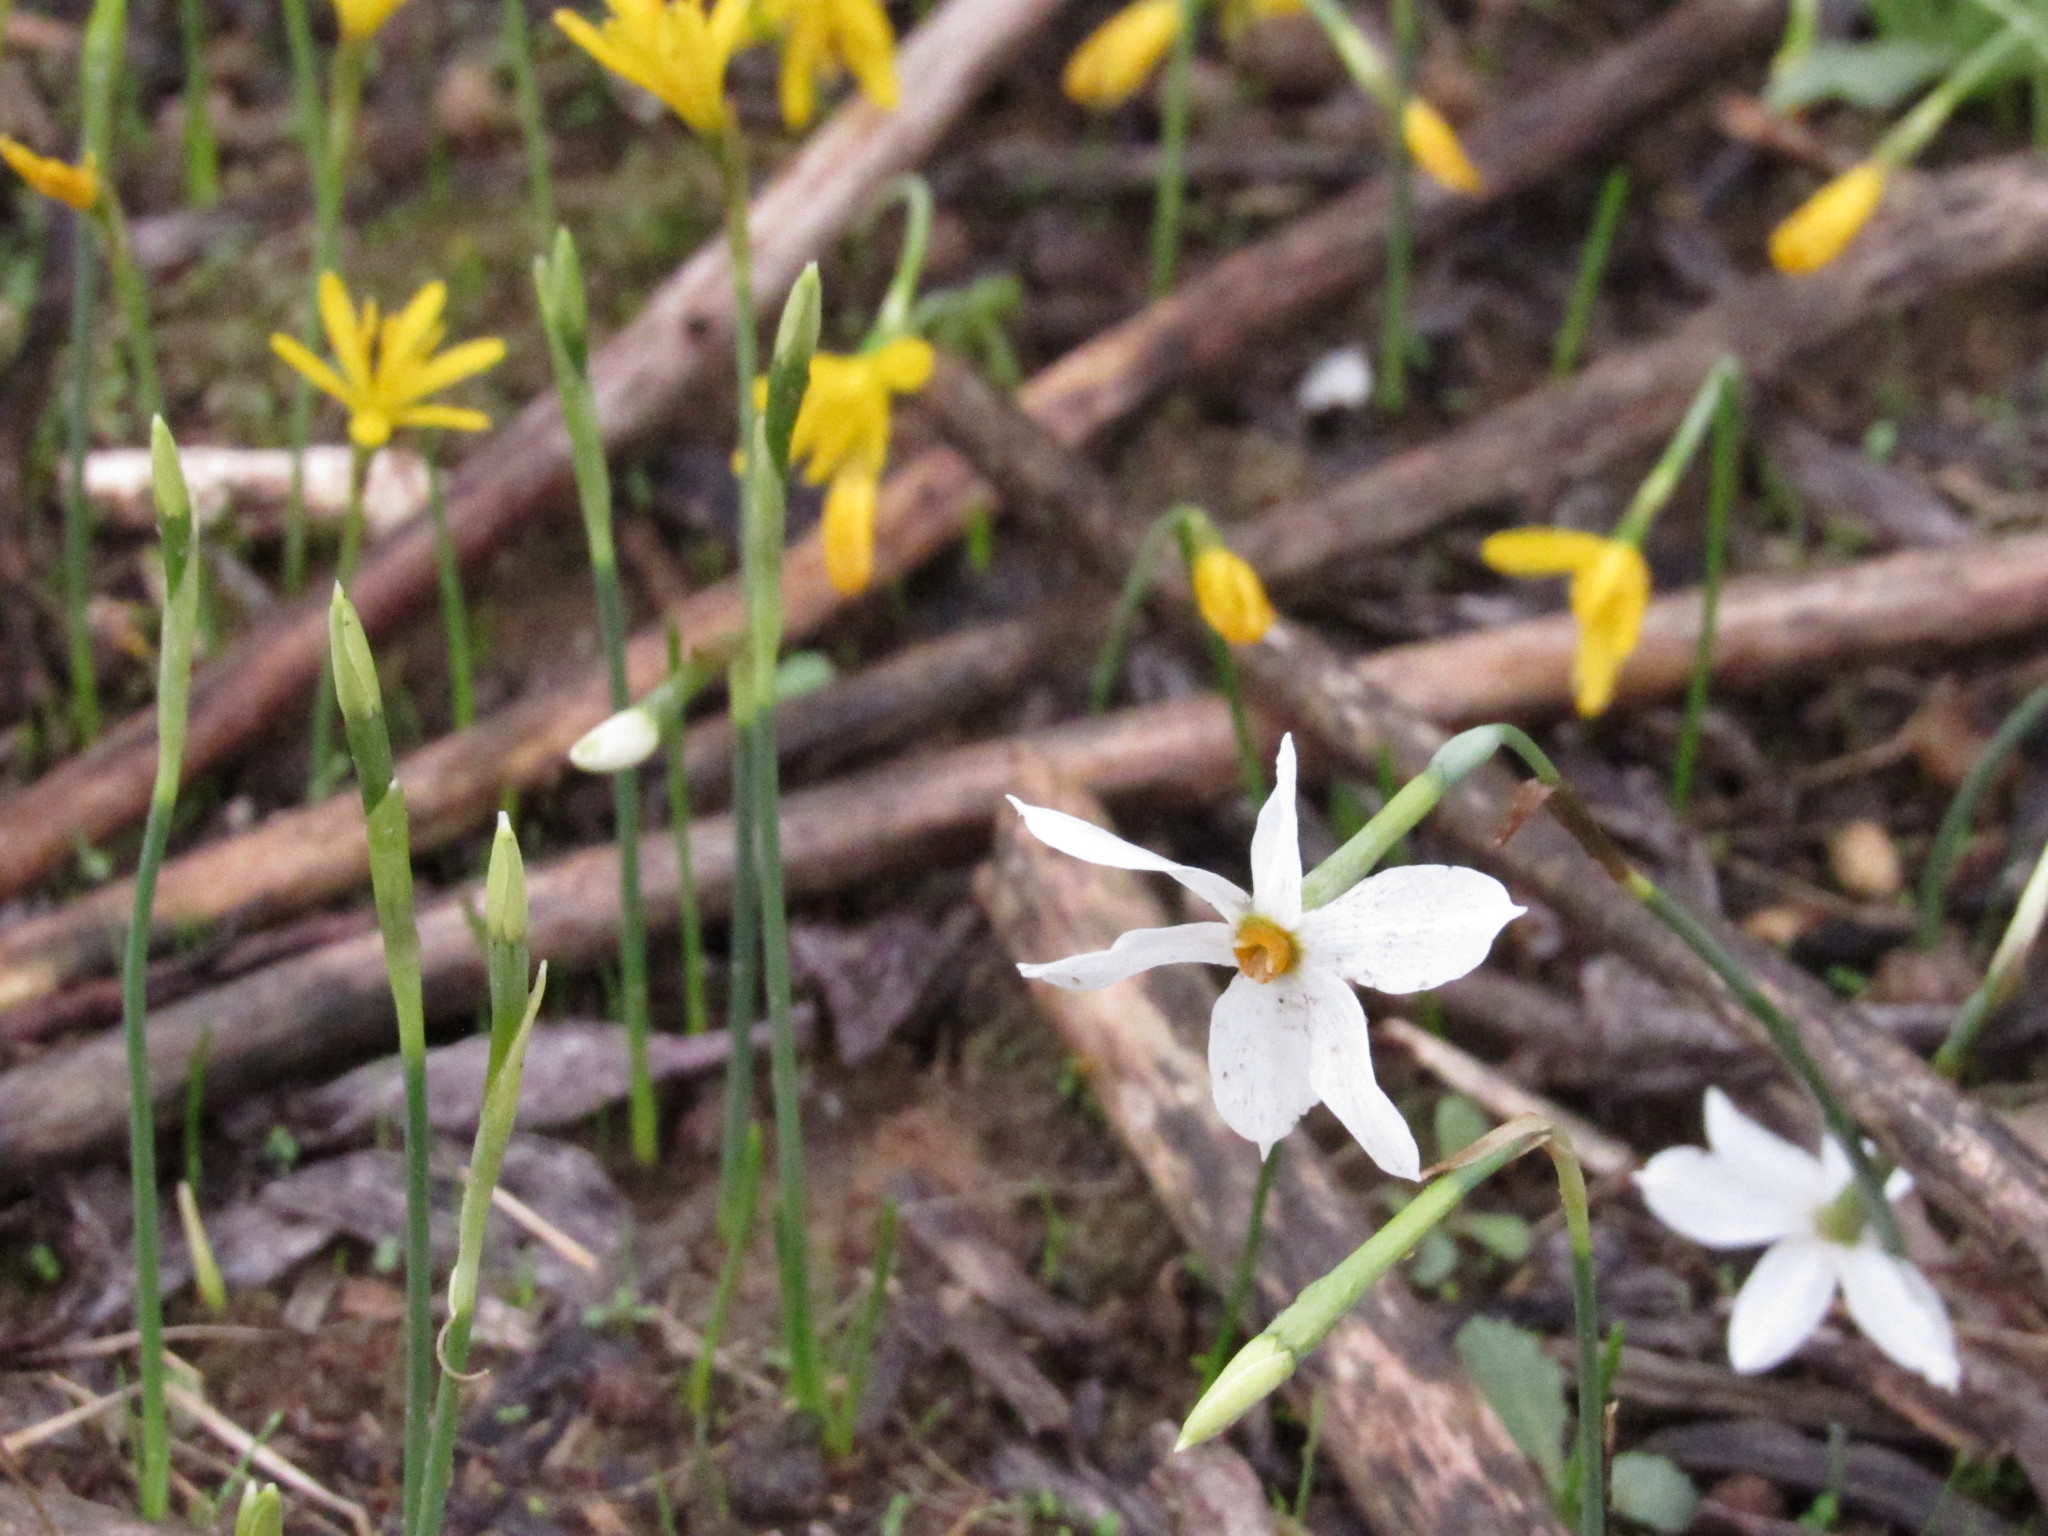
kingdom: Plantae
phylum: Tracheophyta
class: Liliopsida
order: Asparagales
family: Amaryllidaceae
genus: Narcissus
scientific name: Narcissus deficiens
